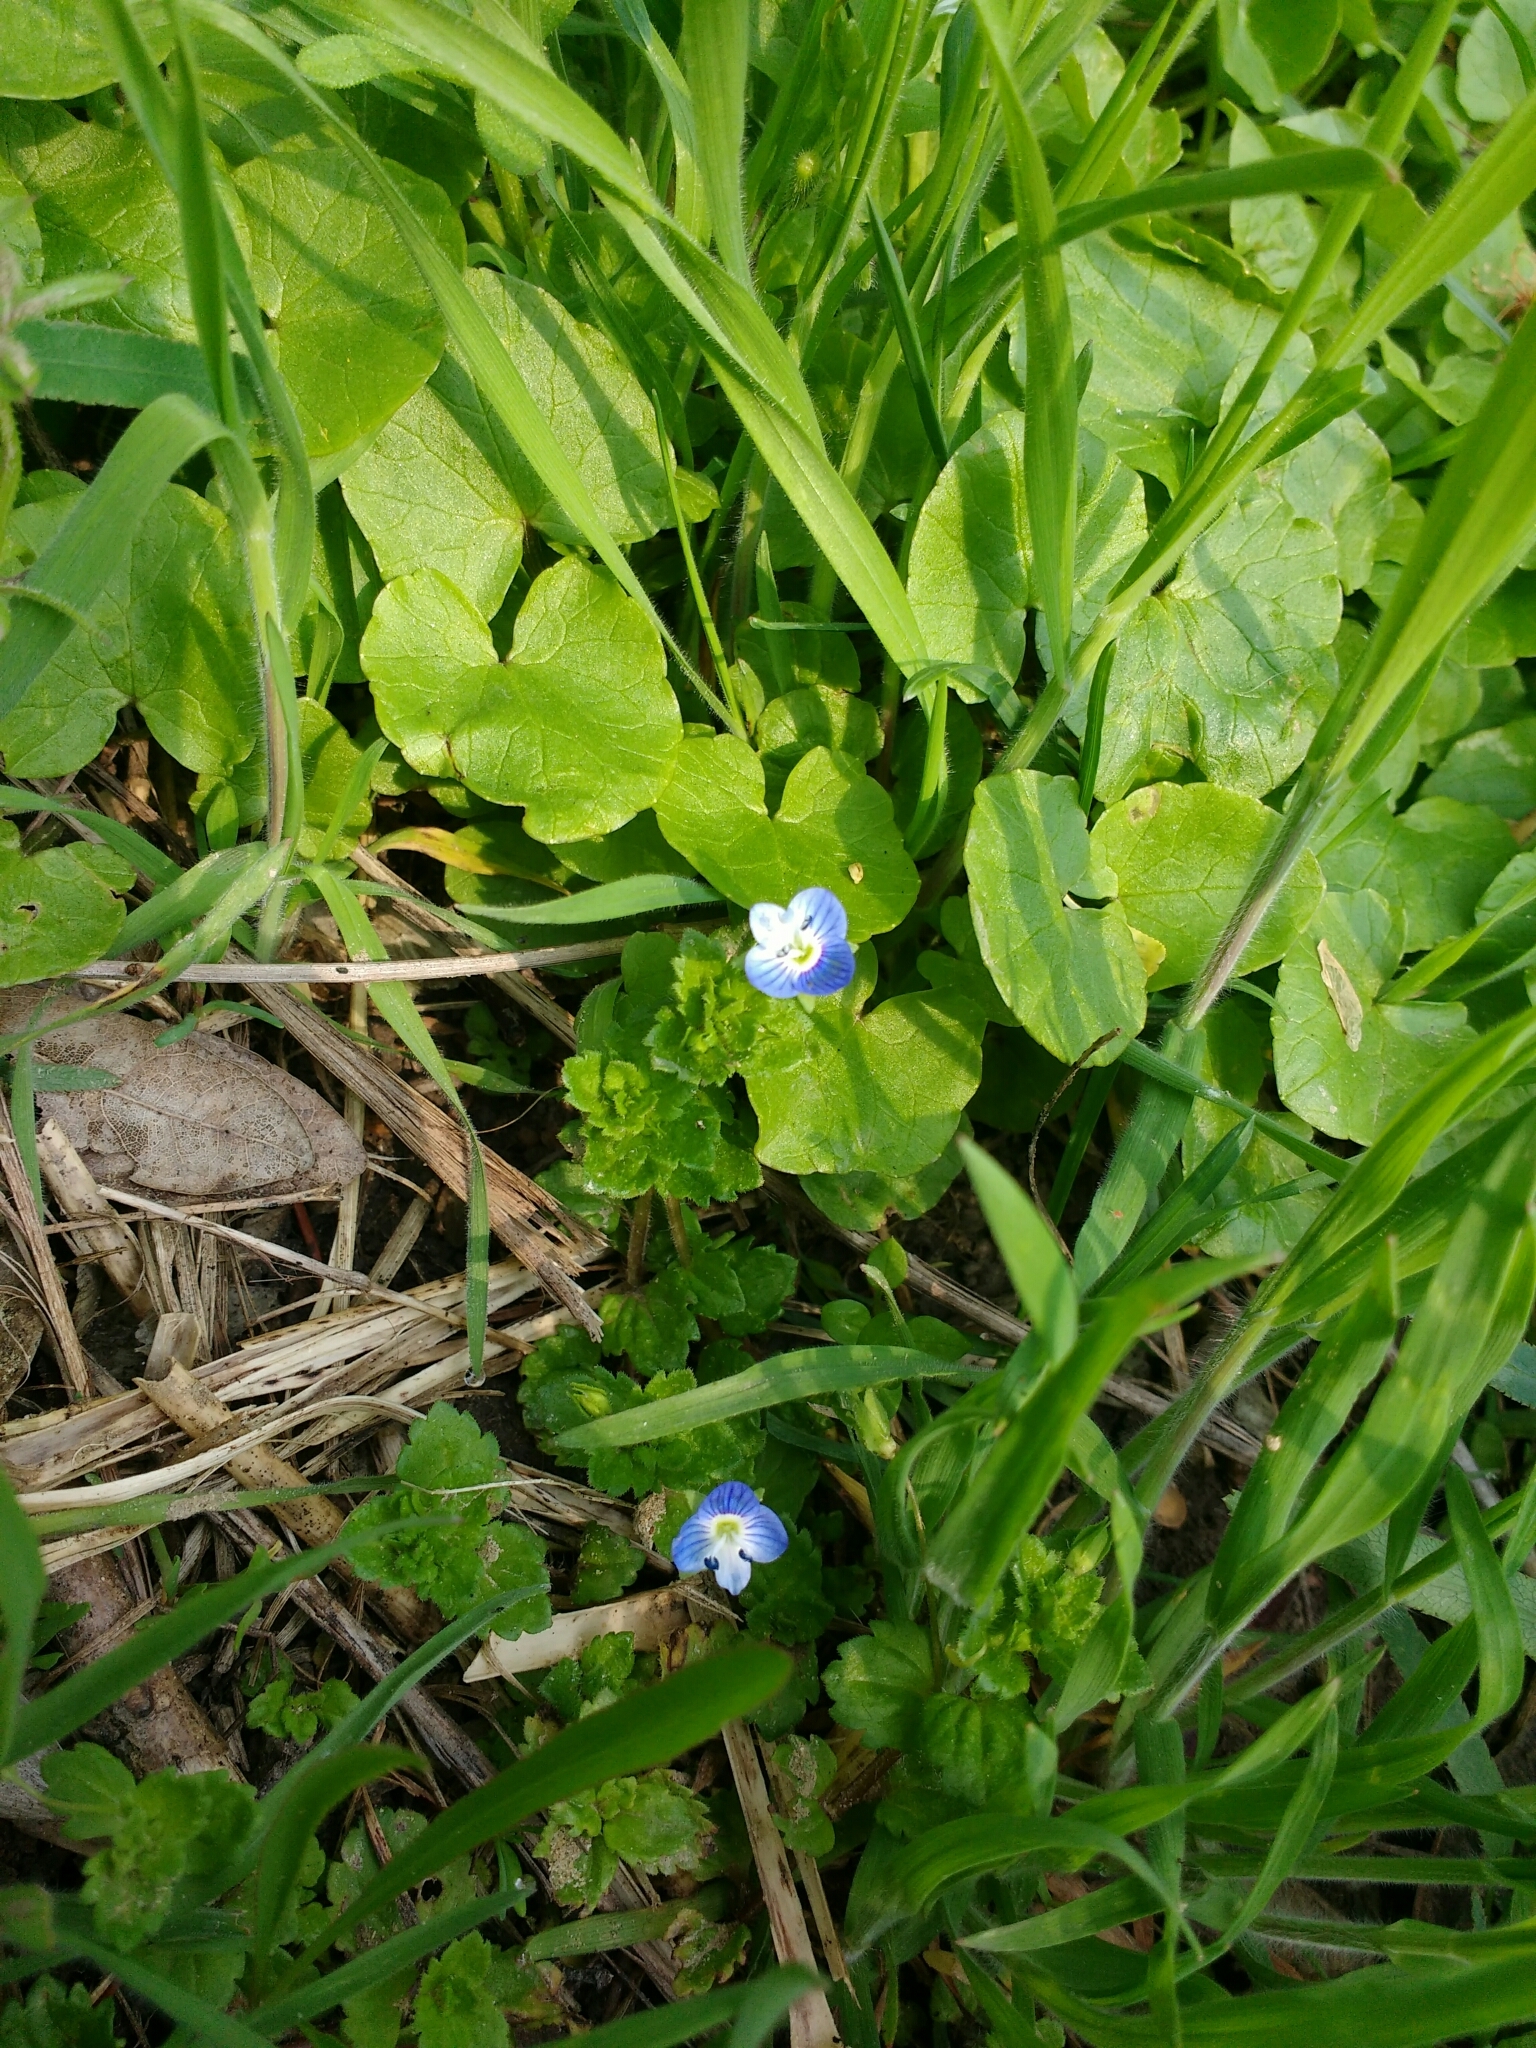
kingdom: Plantae
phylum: Tracheophyta
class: Magnoliopsida
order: Lamiales
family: Plantaginaceae
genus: Veronica
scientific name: Veronica persica
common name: Common field-speedwell
